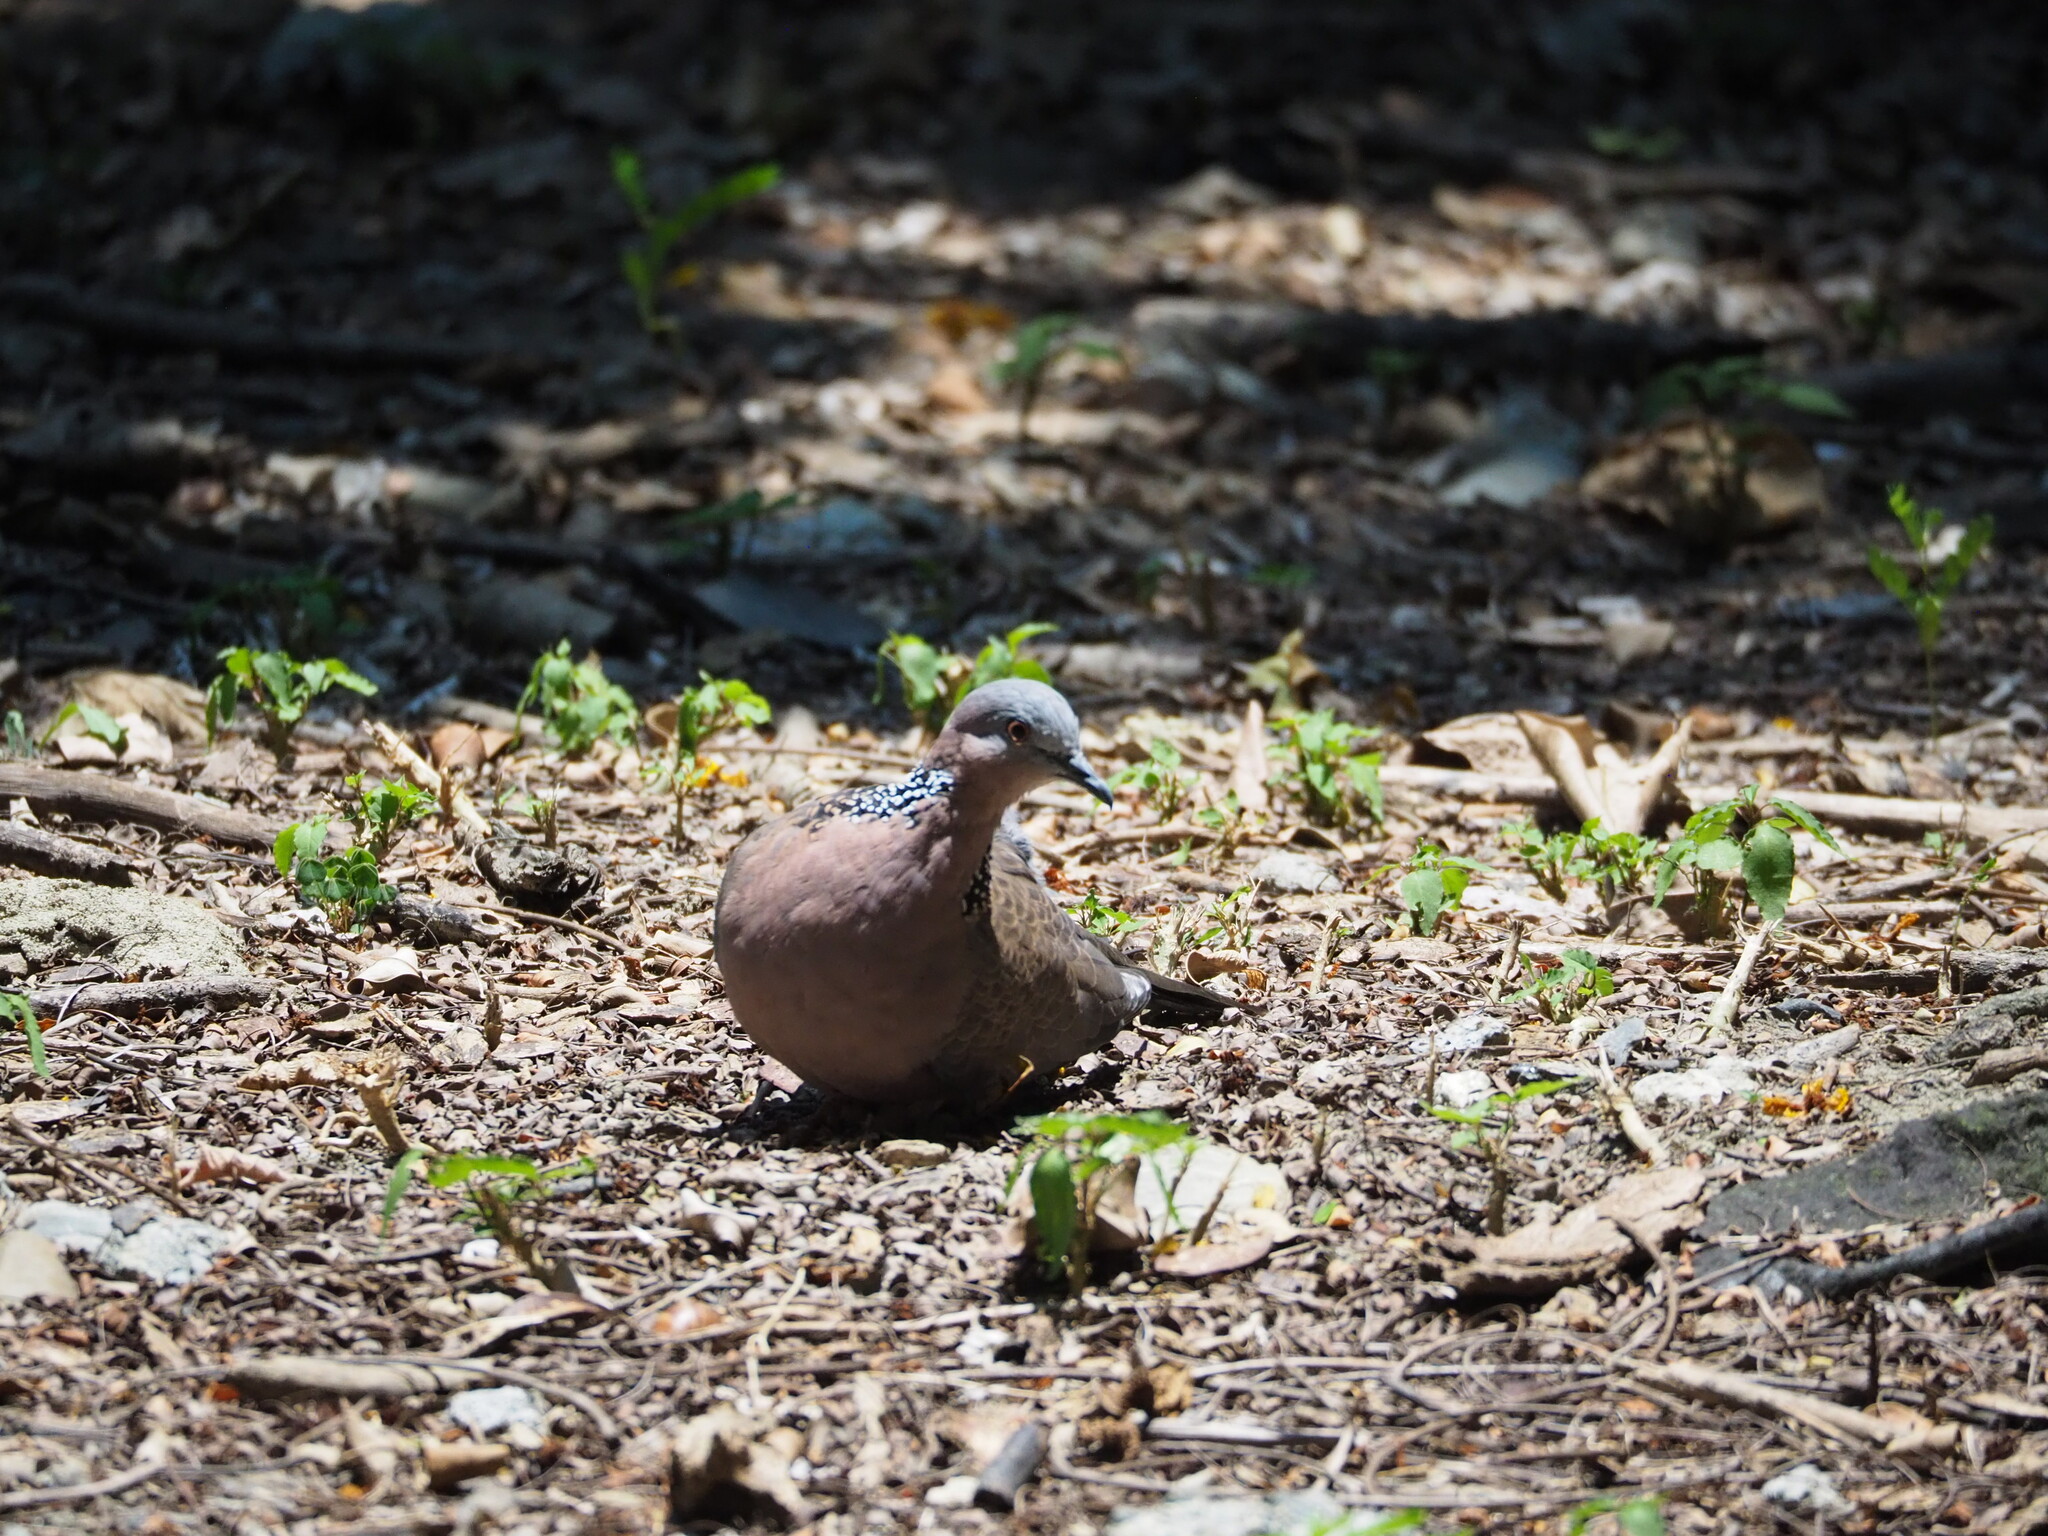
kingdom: Animalia
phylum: Chordata
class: Aves
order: Columbiformes
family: Columbidae
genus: Spilopelia
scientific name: Spilopelia chinensis
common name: Spotted dove
